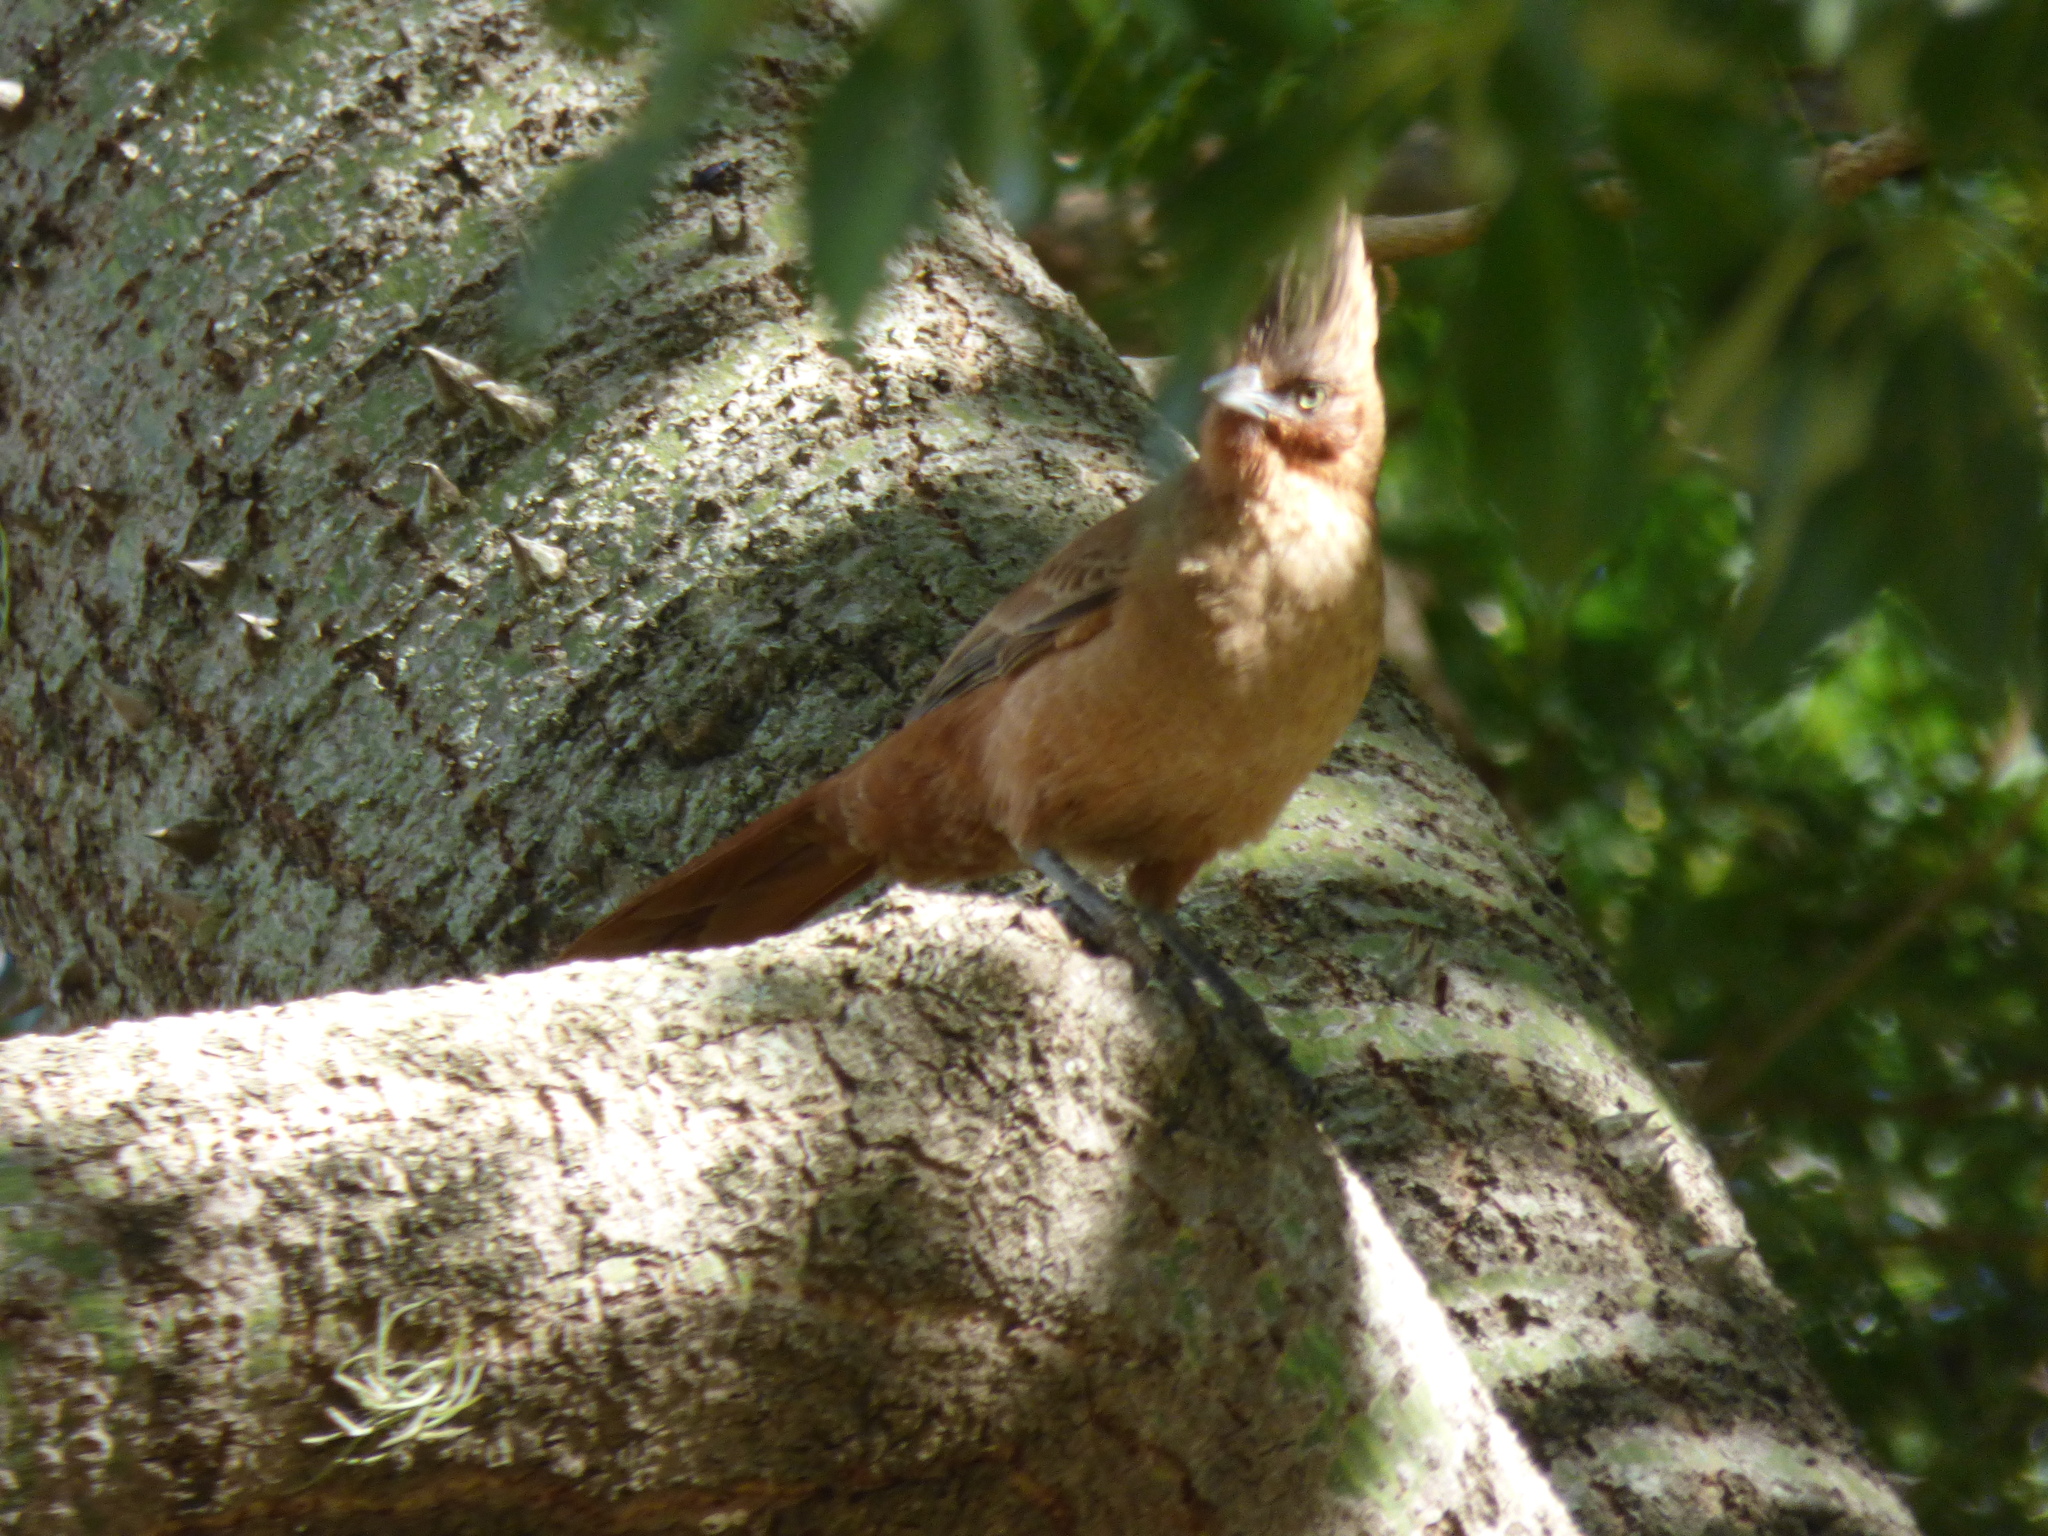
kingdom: Animalia
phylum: Chordata
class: Aves
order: Passeriformes
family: Furnariidae
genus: Pseudoseisura
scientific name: Pseudoseisura lophotes
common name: Brown cacholote
